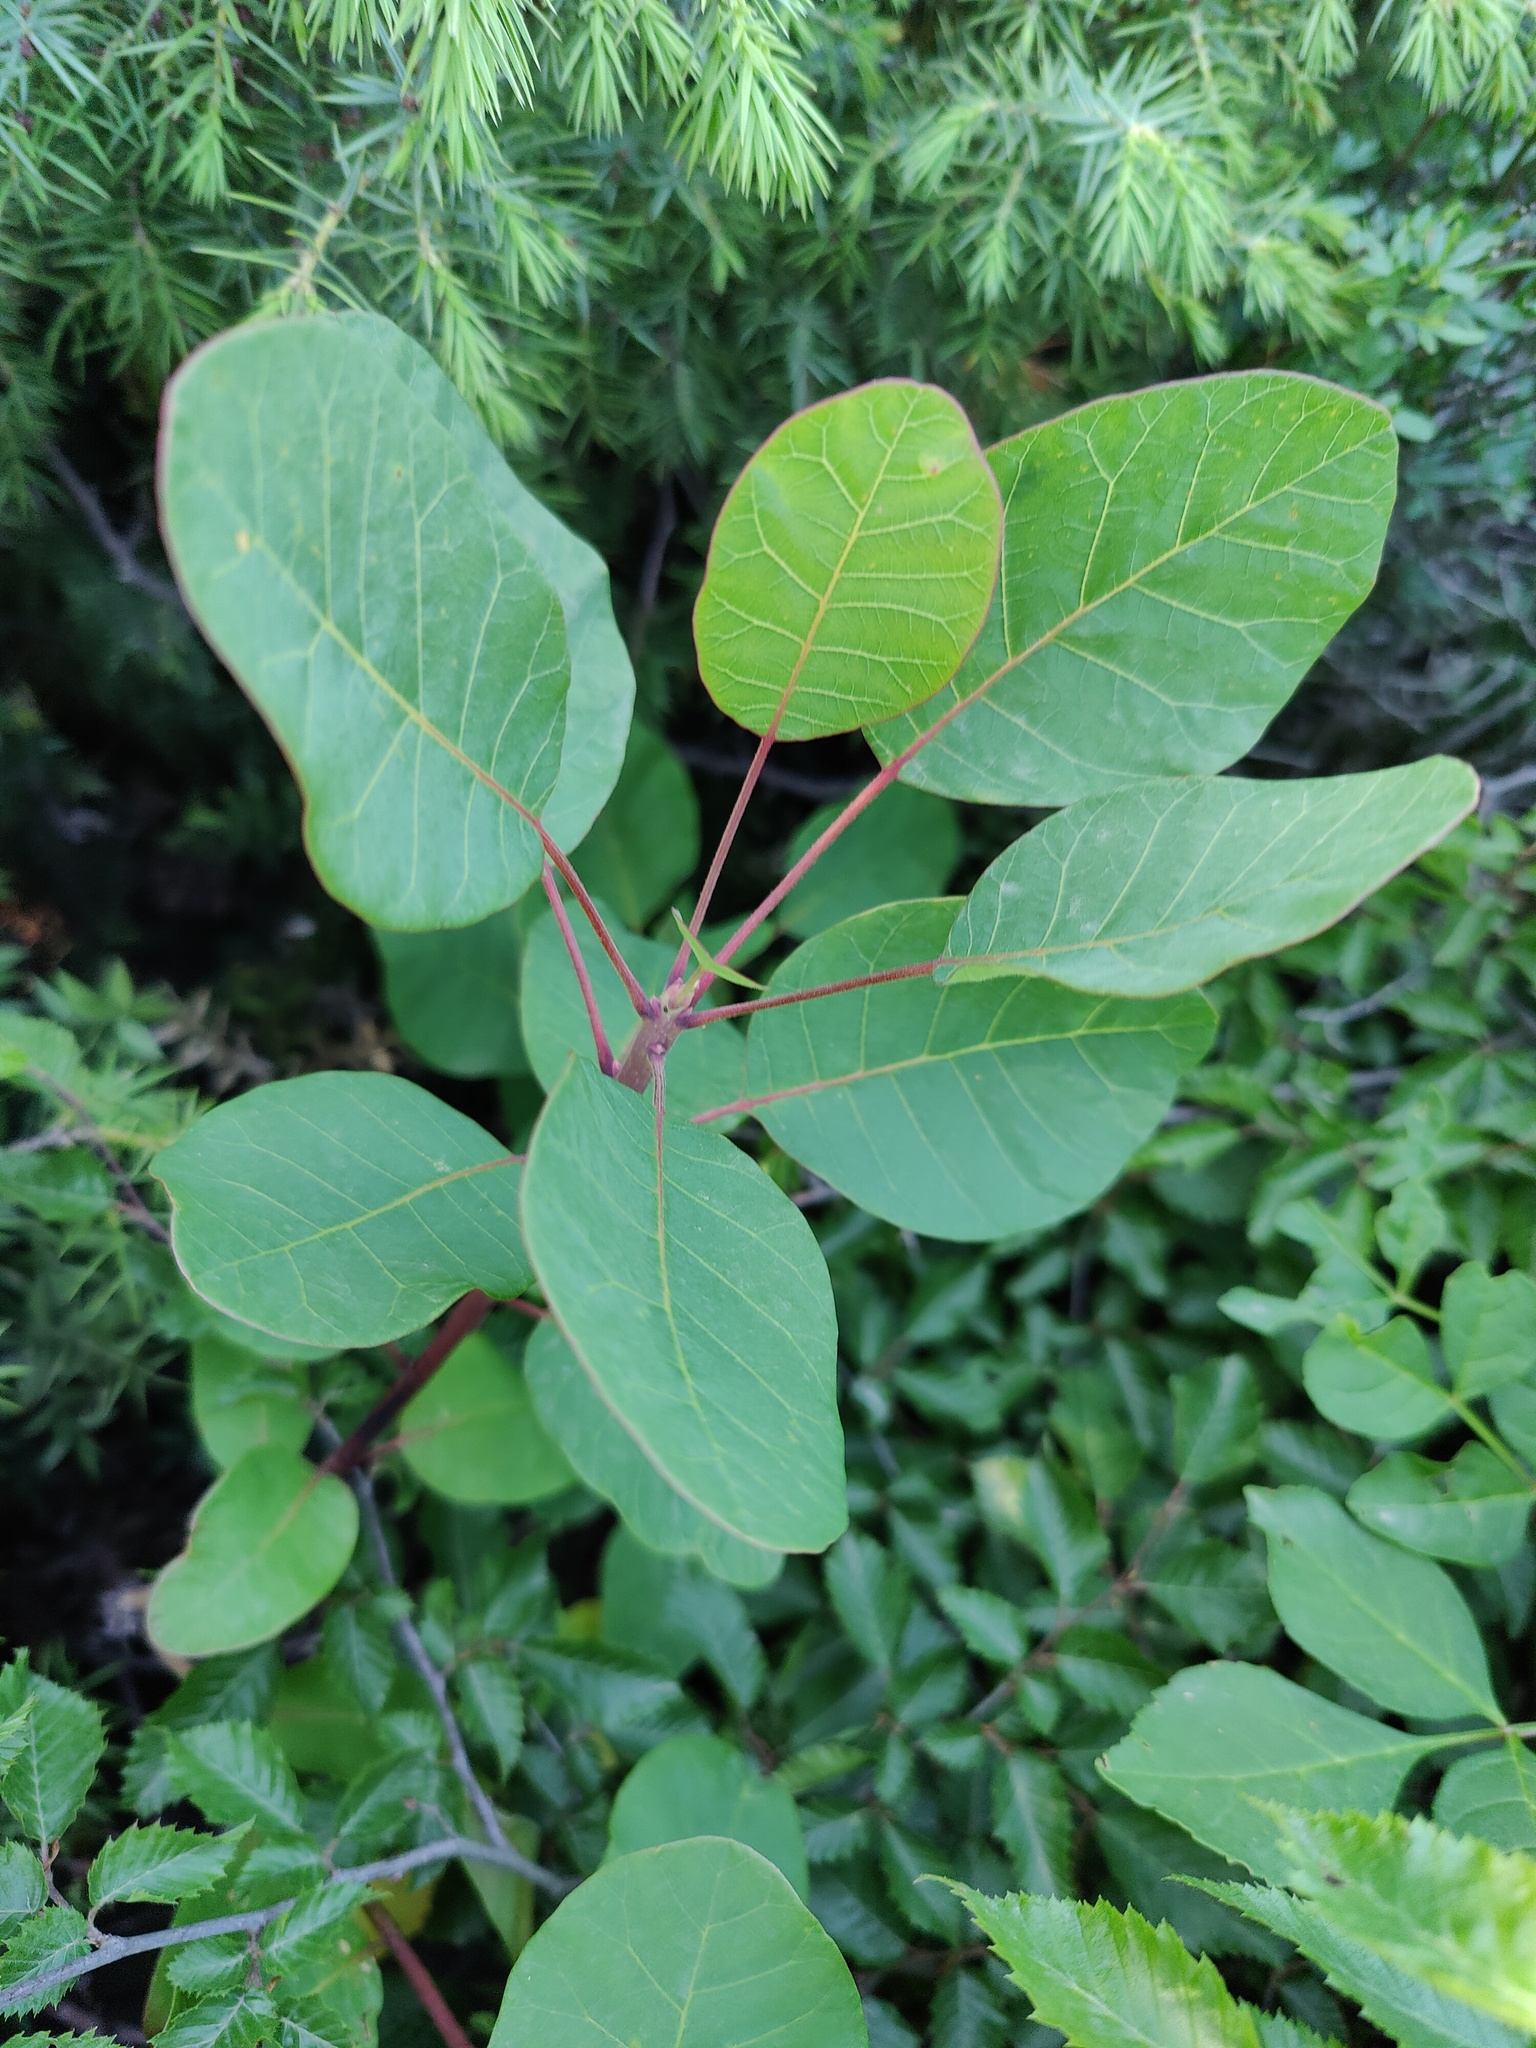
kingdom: Plantae
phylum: Tracheophyta
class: Magnoliopsida
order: Sapindales
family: Anacardiaceae
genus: Cotinus
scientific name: Cotinus coggygria
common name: Smoke-tree
